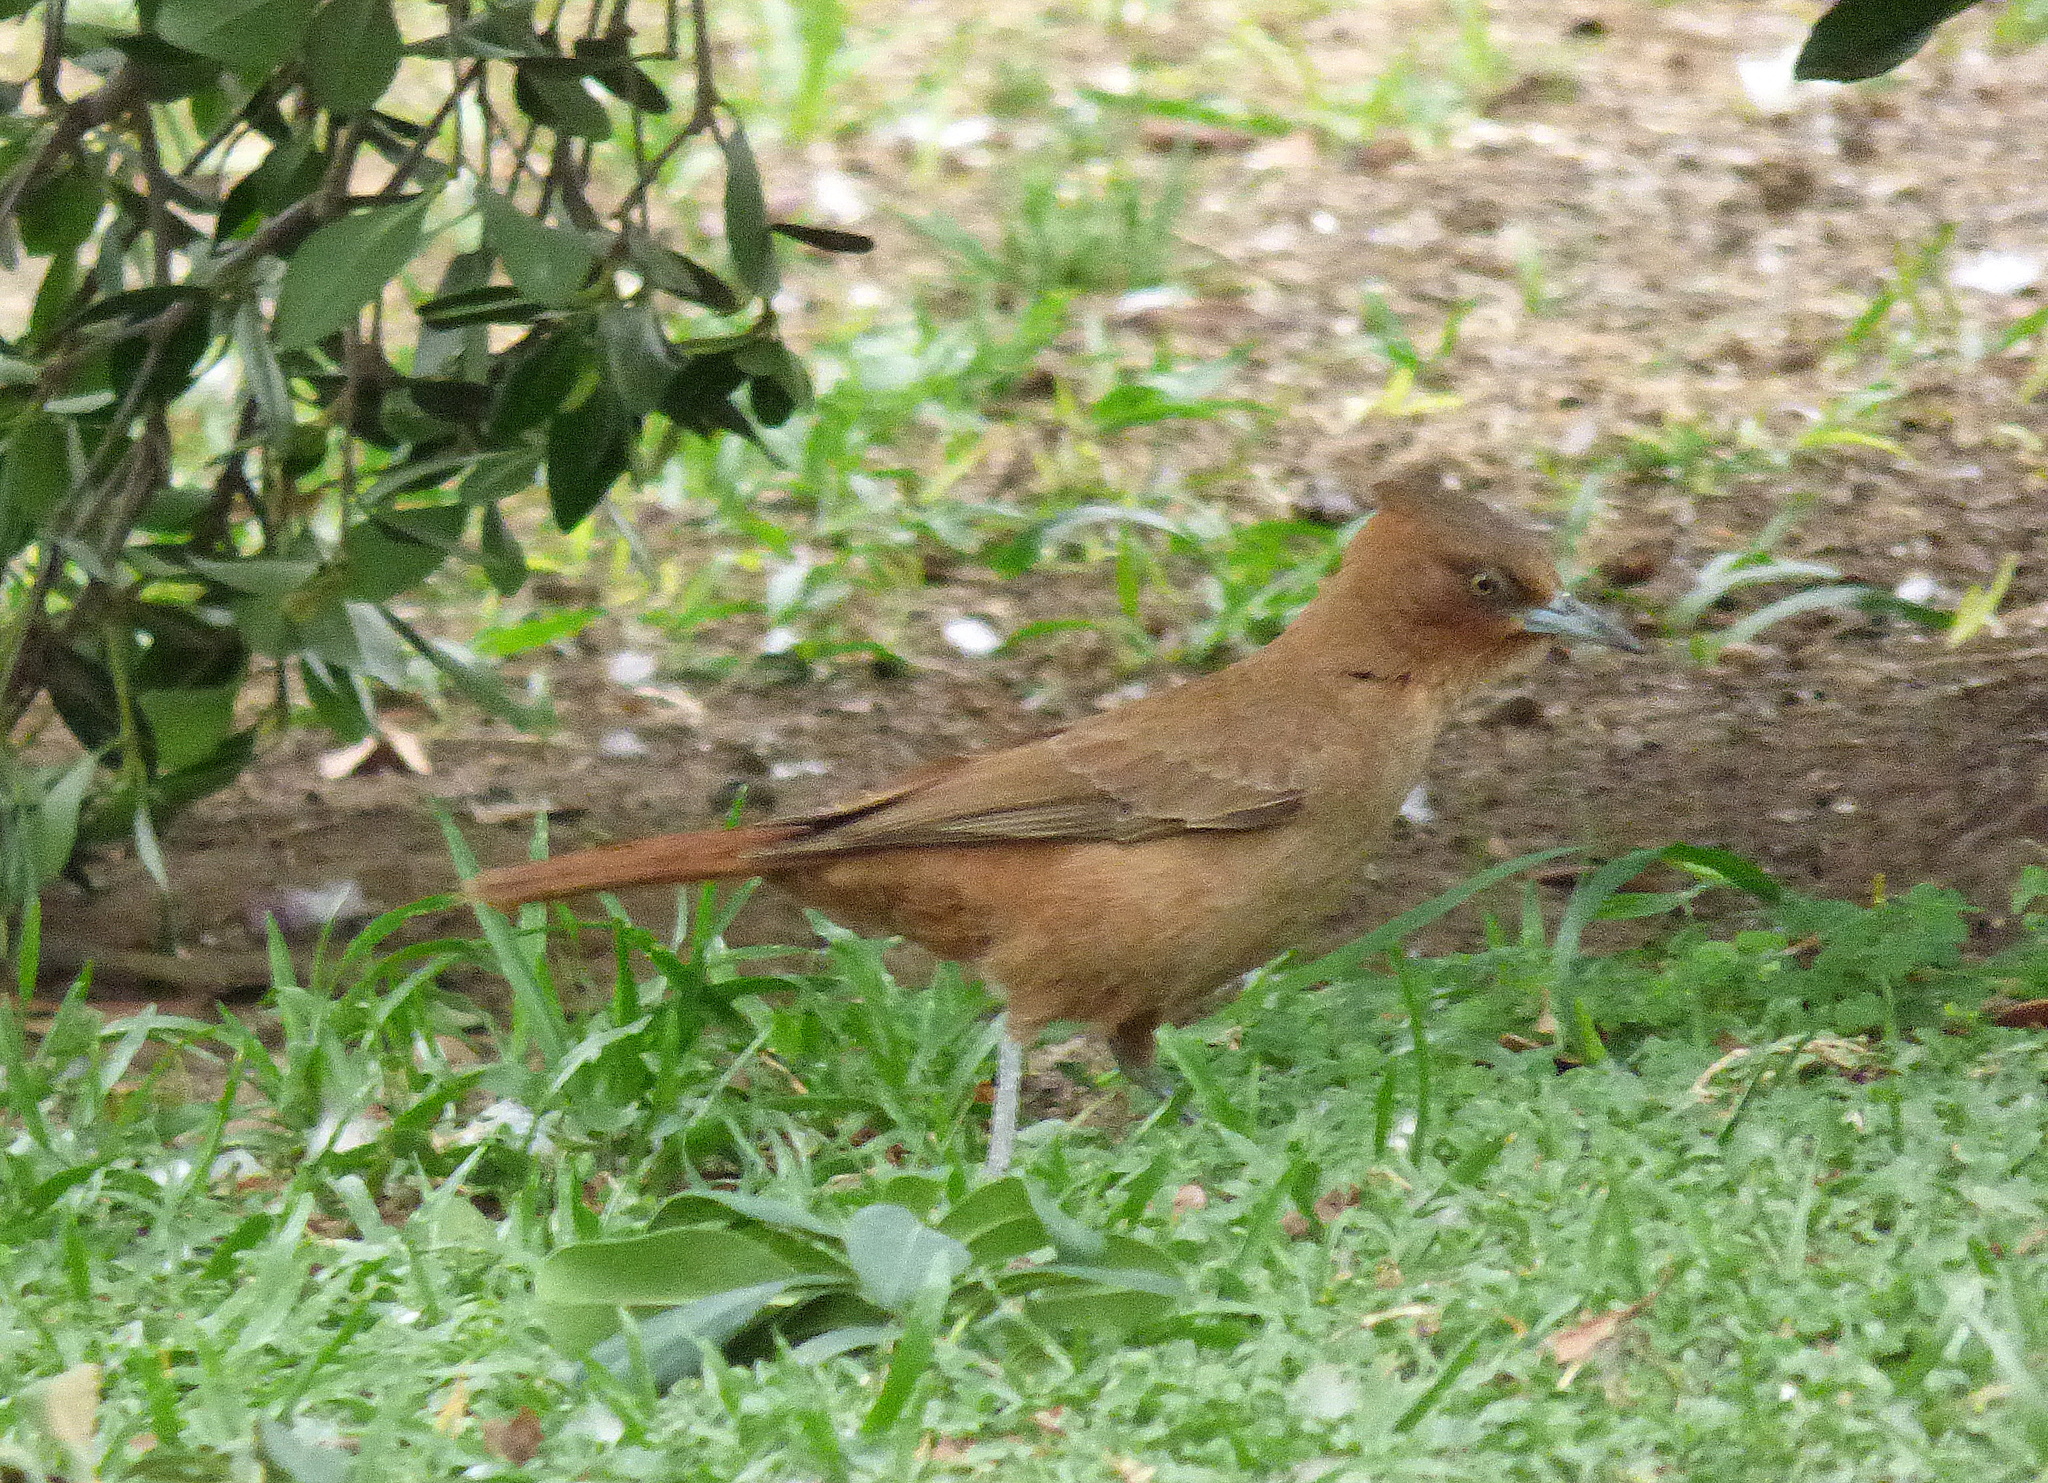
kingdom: Animalia
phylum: Chordata
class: Aves
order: Passeriformes
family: Furnariidae
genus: Pseudoseisura
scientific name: Pseudoseisura lophotes
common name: Brown cacholote
